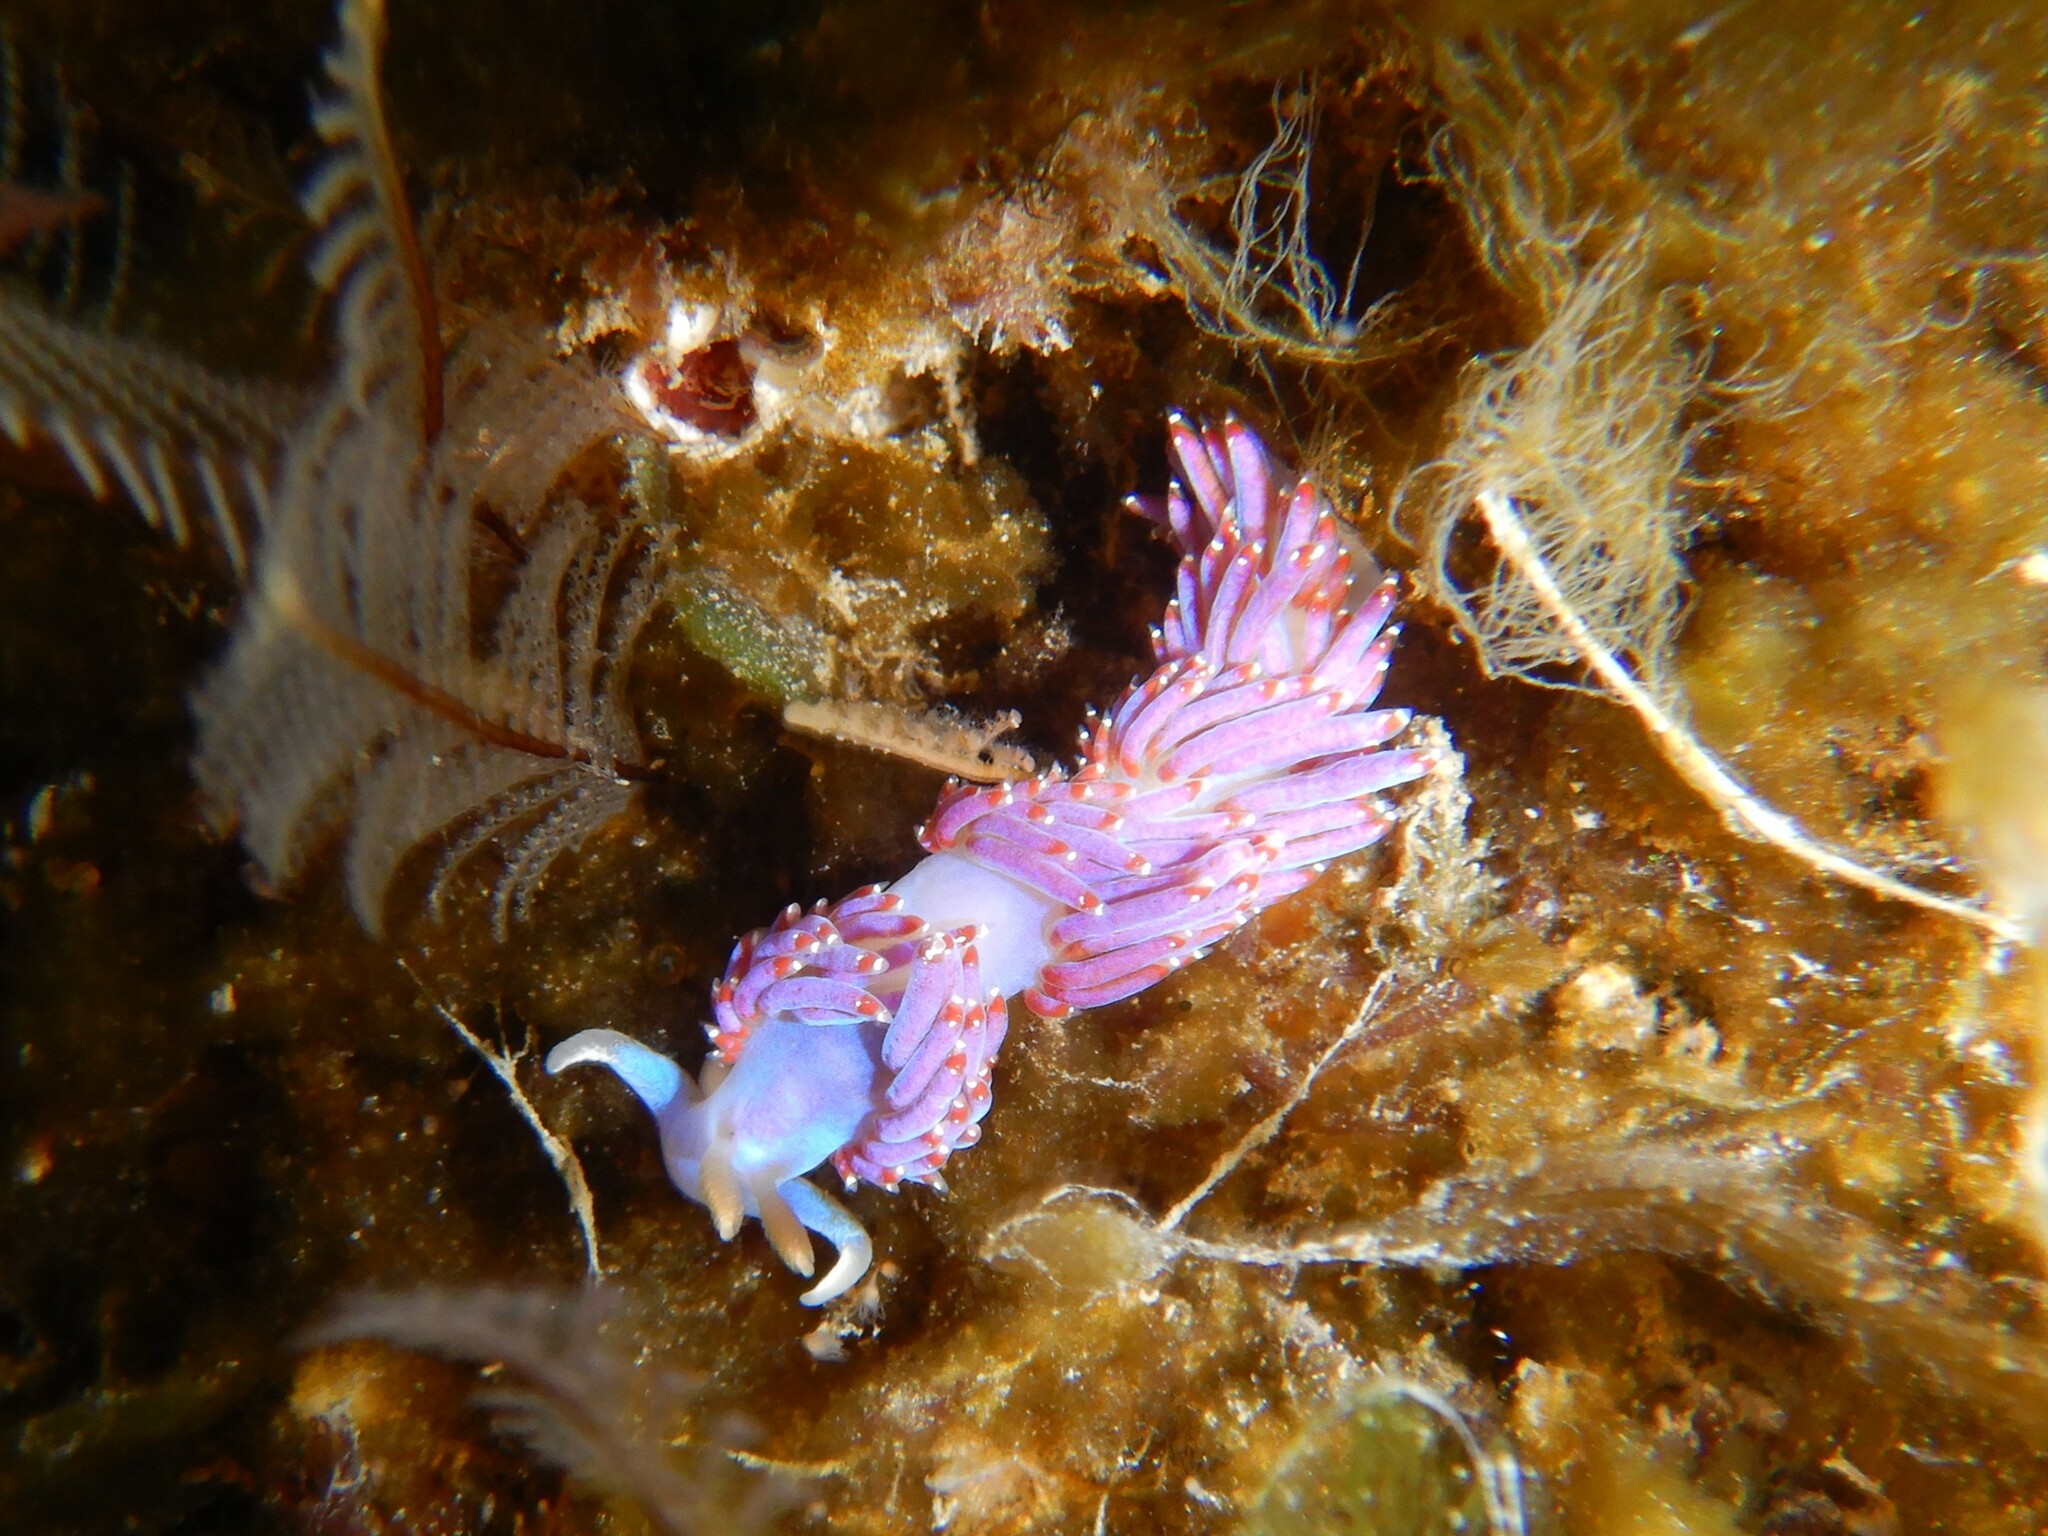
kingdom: Animalia
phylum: Mollusca
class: Gastropoda
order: Nudibranchia
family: Facelinidae
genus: Facelina
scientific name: Facelina auriculata
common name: Slender facelina
